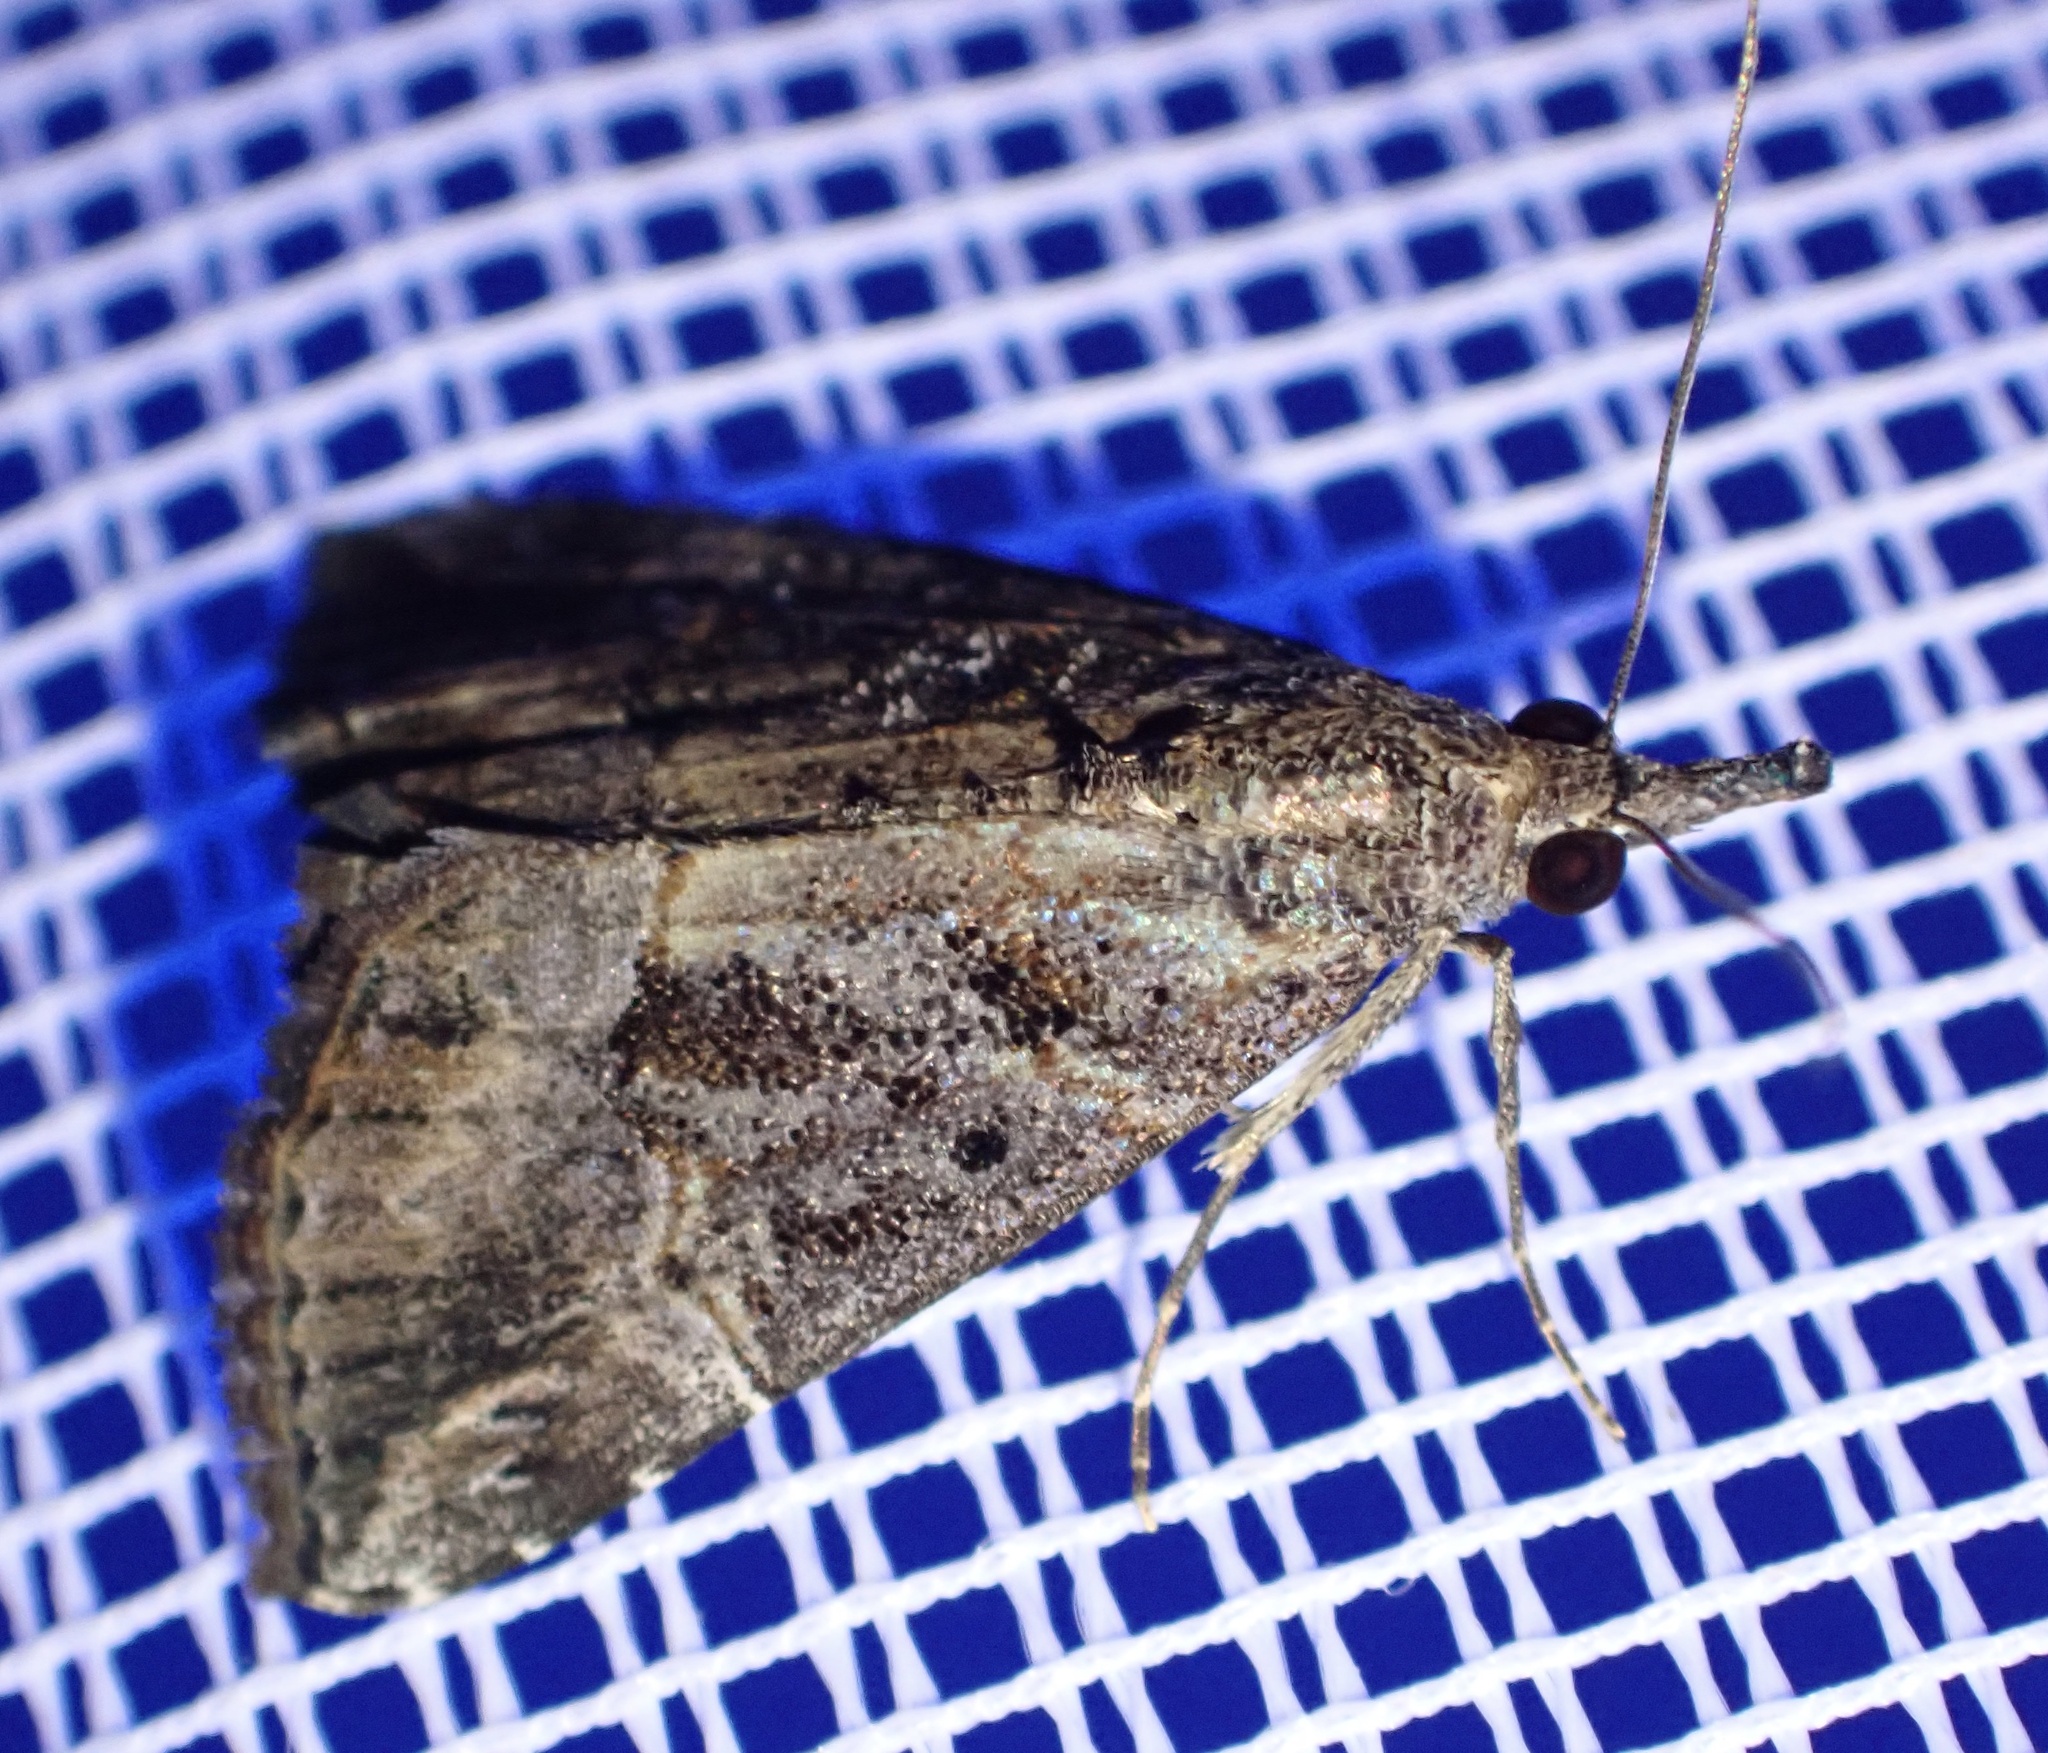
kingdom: Animalia
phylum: Arthropoda
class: Insecta
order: Lepidoptera
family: Erebidae
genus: Hypena
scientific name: Hypena commixtalis
